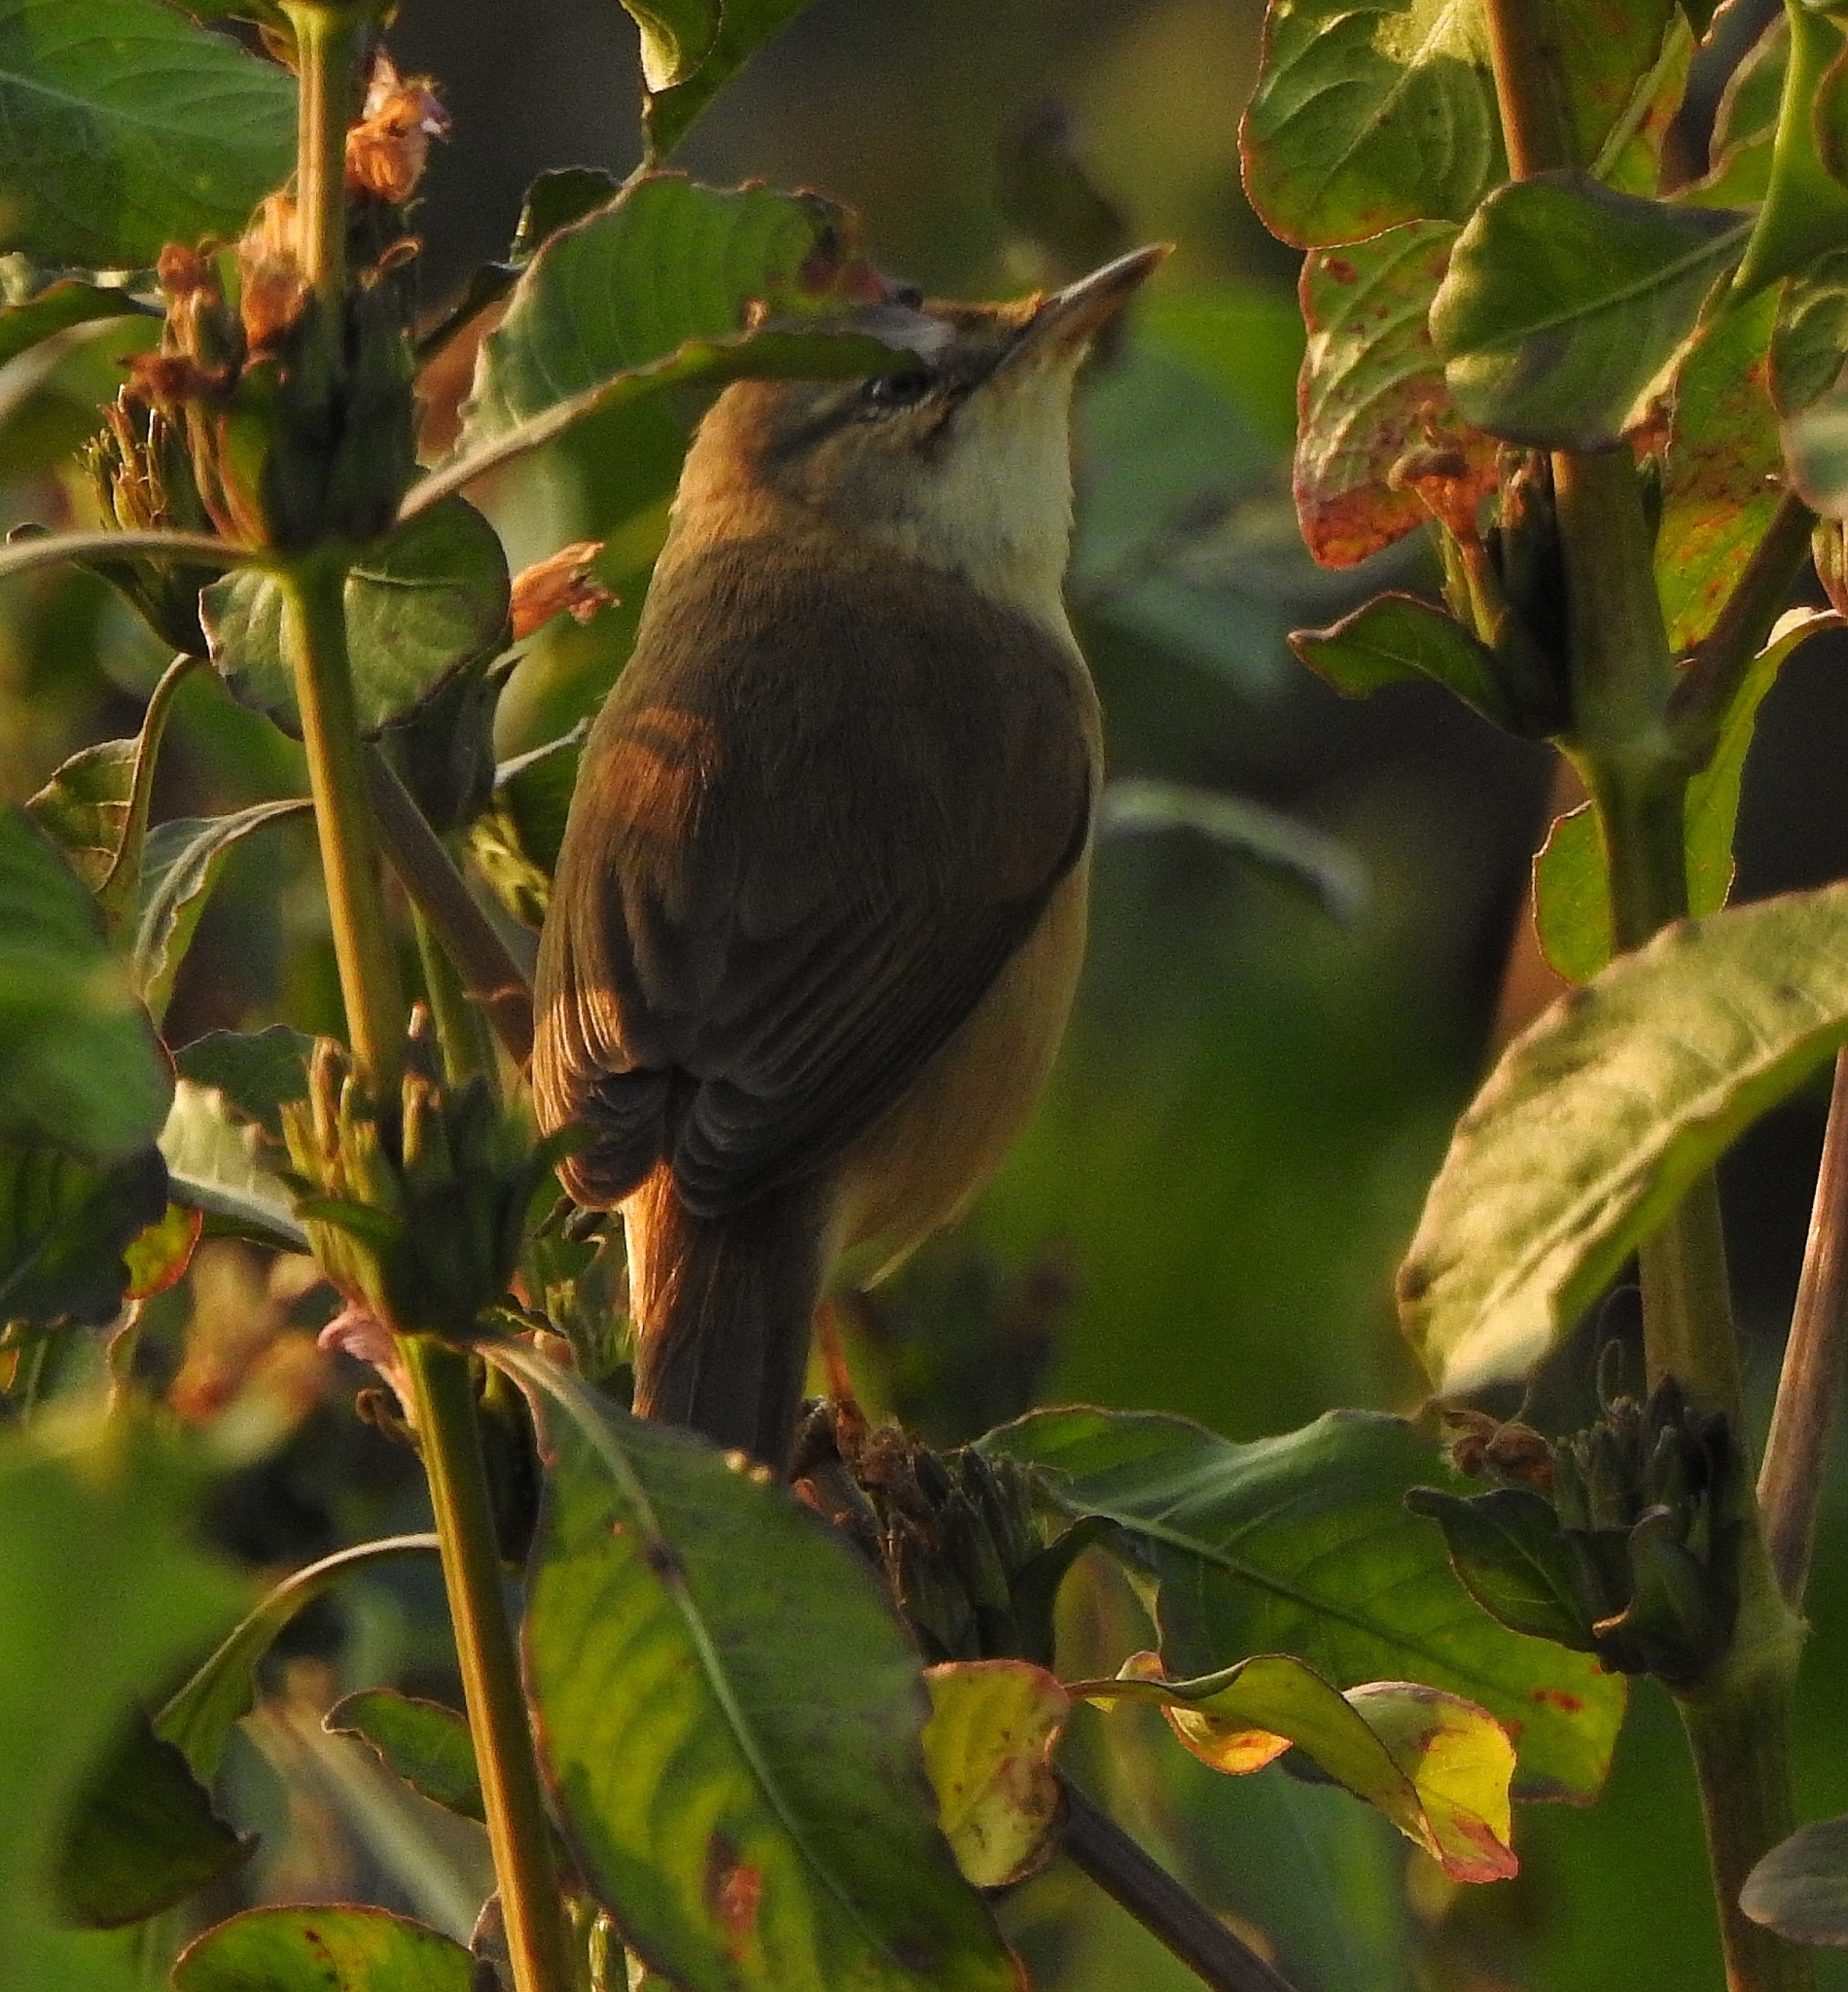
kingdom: Animalia
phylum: Chordata
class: Aves
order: Passeriformes
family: Acrocephalidae
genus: Acrocephalus
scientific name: Acrocephalus agricola
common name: Paddyfield warbler
